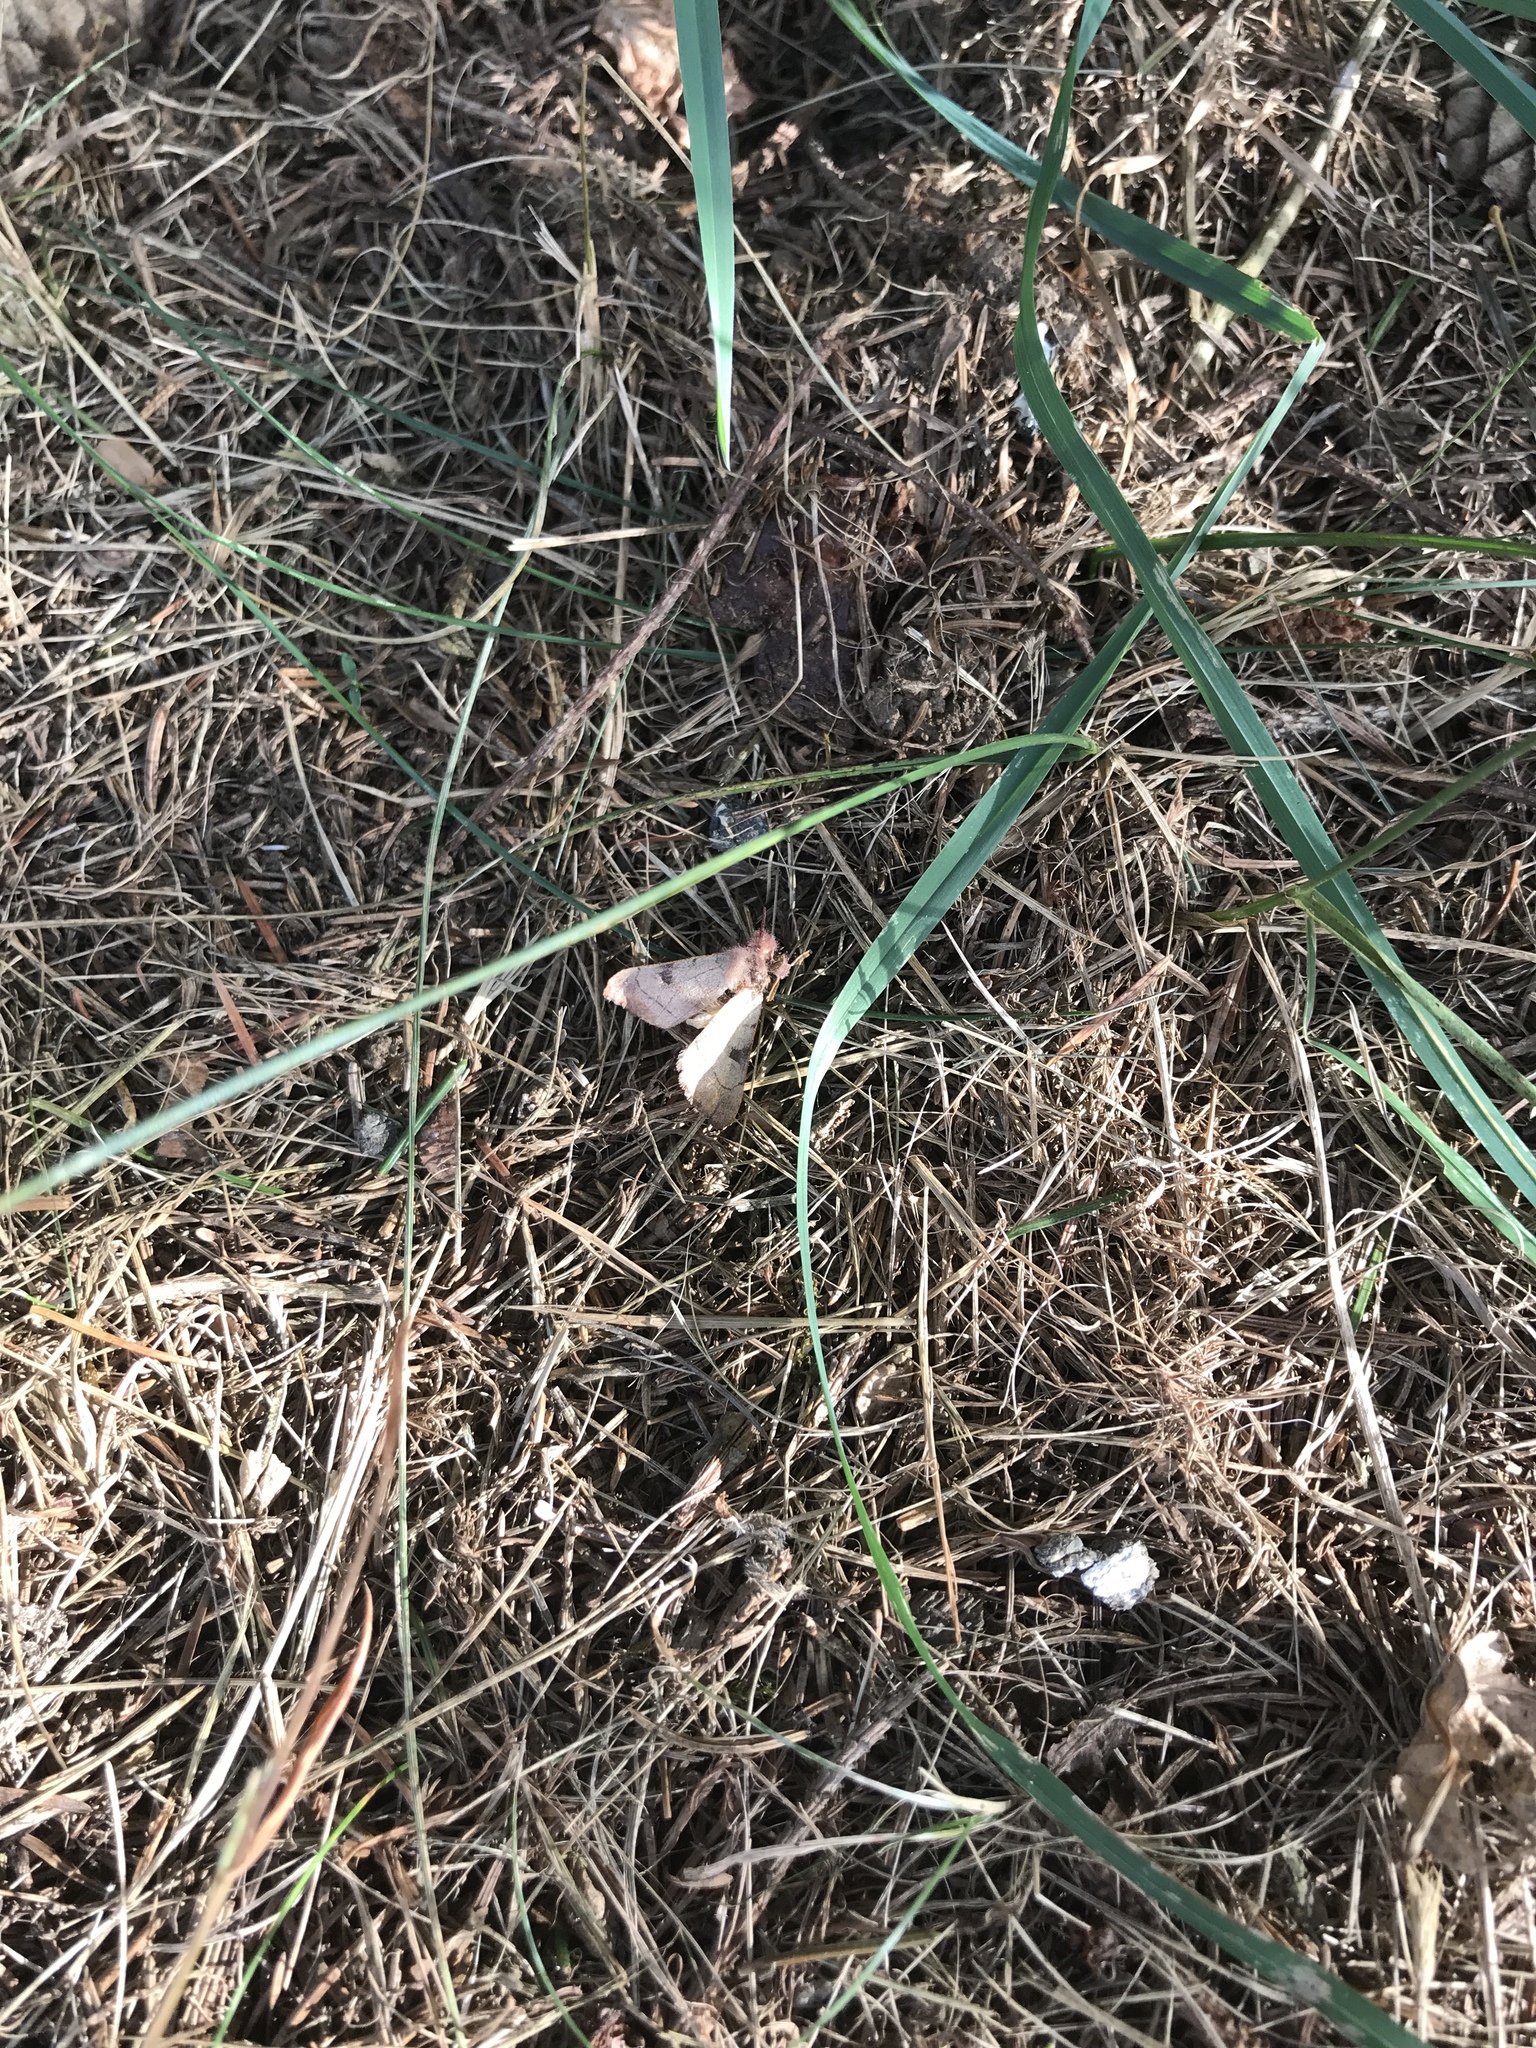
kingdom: Animalia
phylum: Arthropoda
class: Insecta
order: Lepidoptera
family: Noctuidae
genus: Choephora
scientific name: Choephora fungorum
